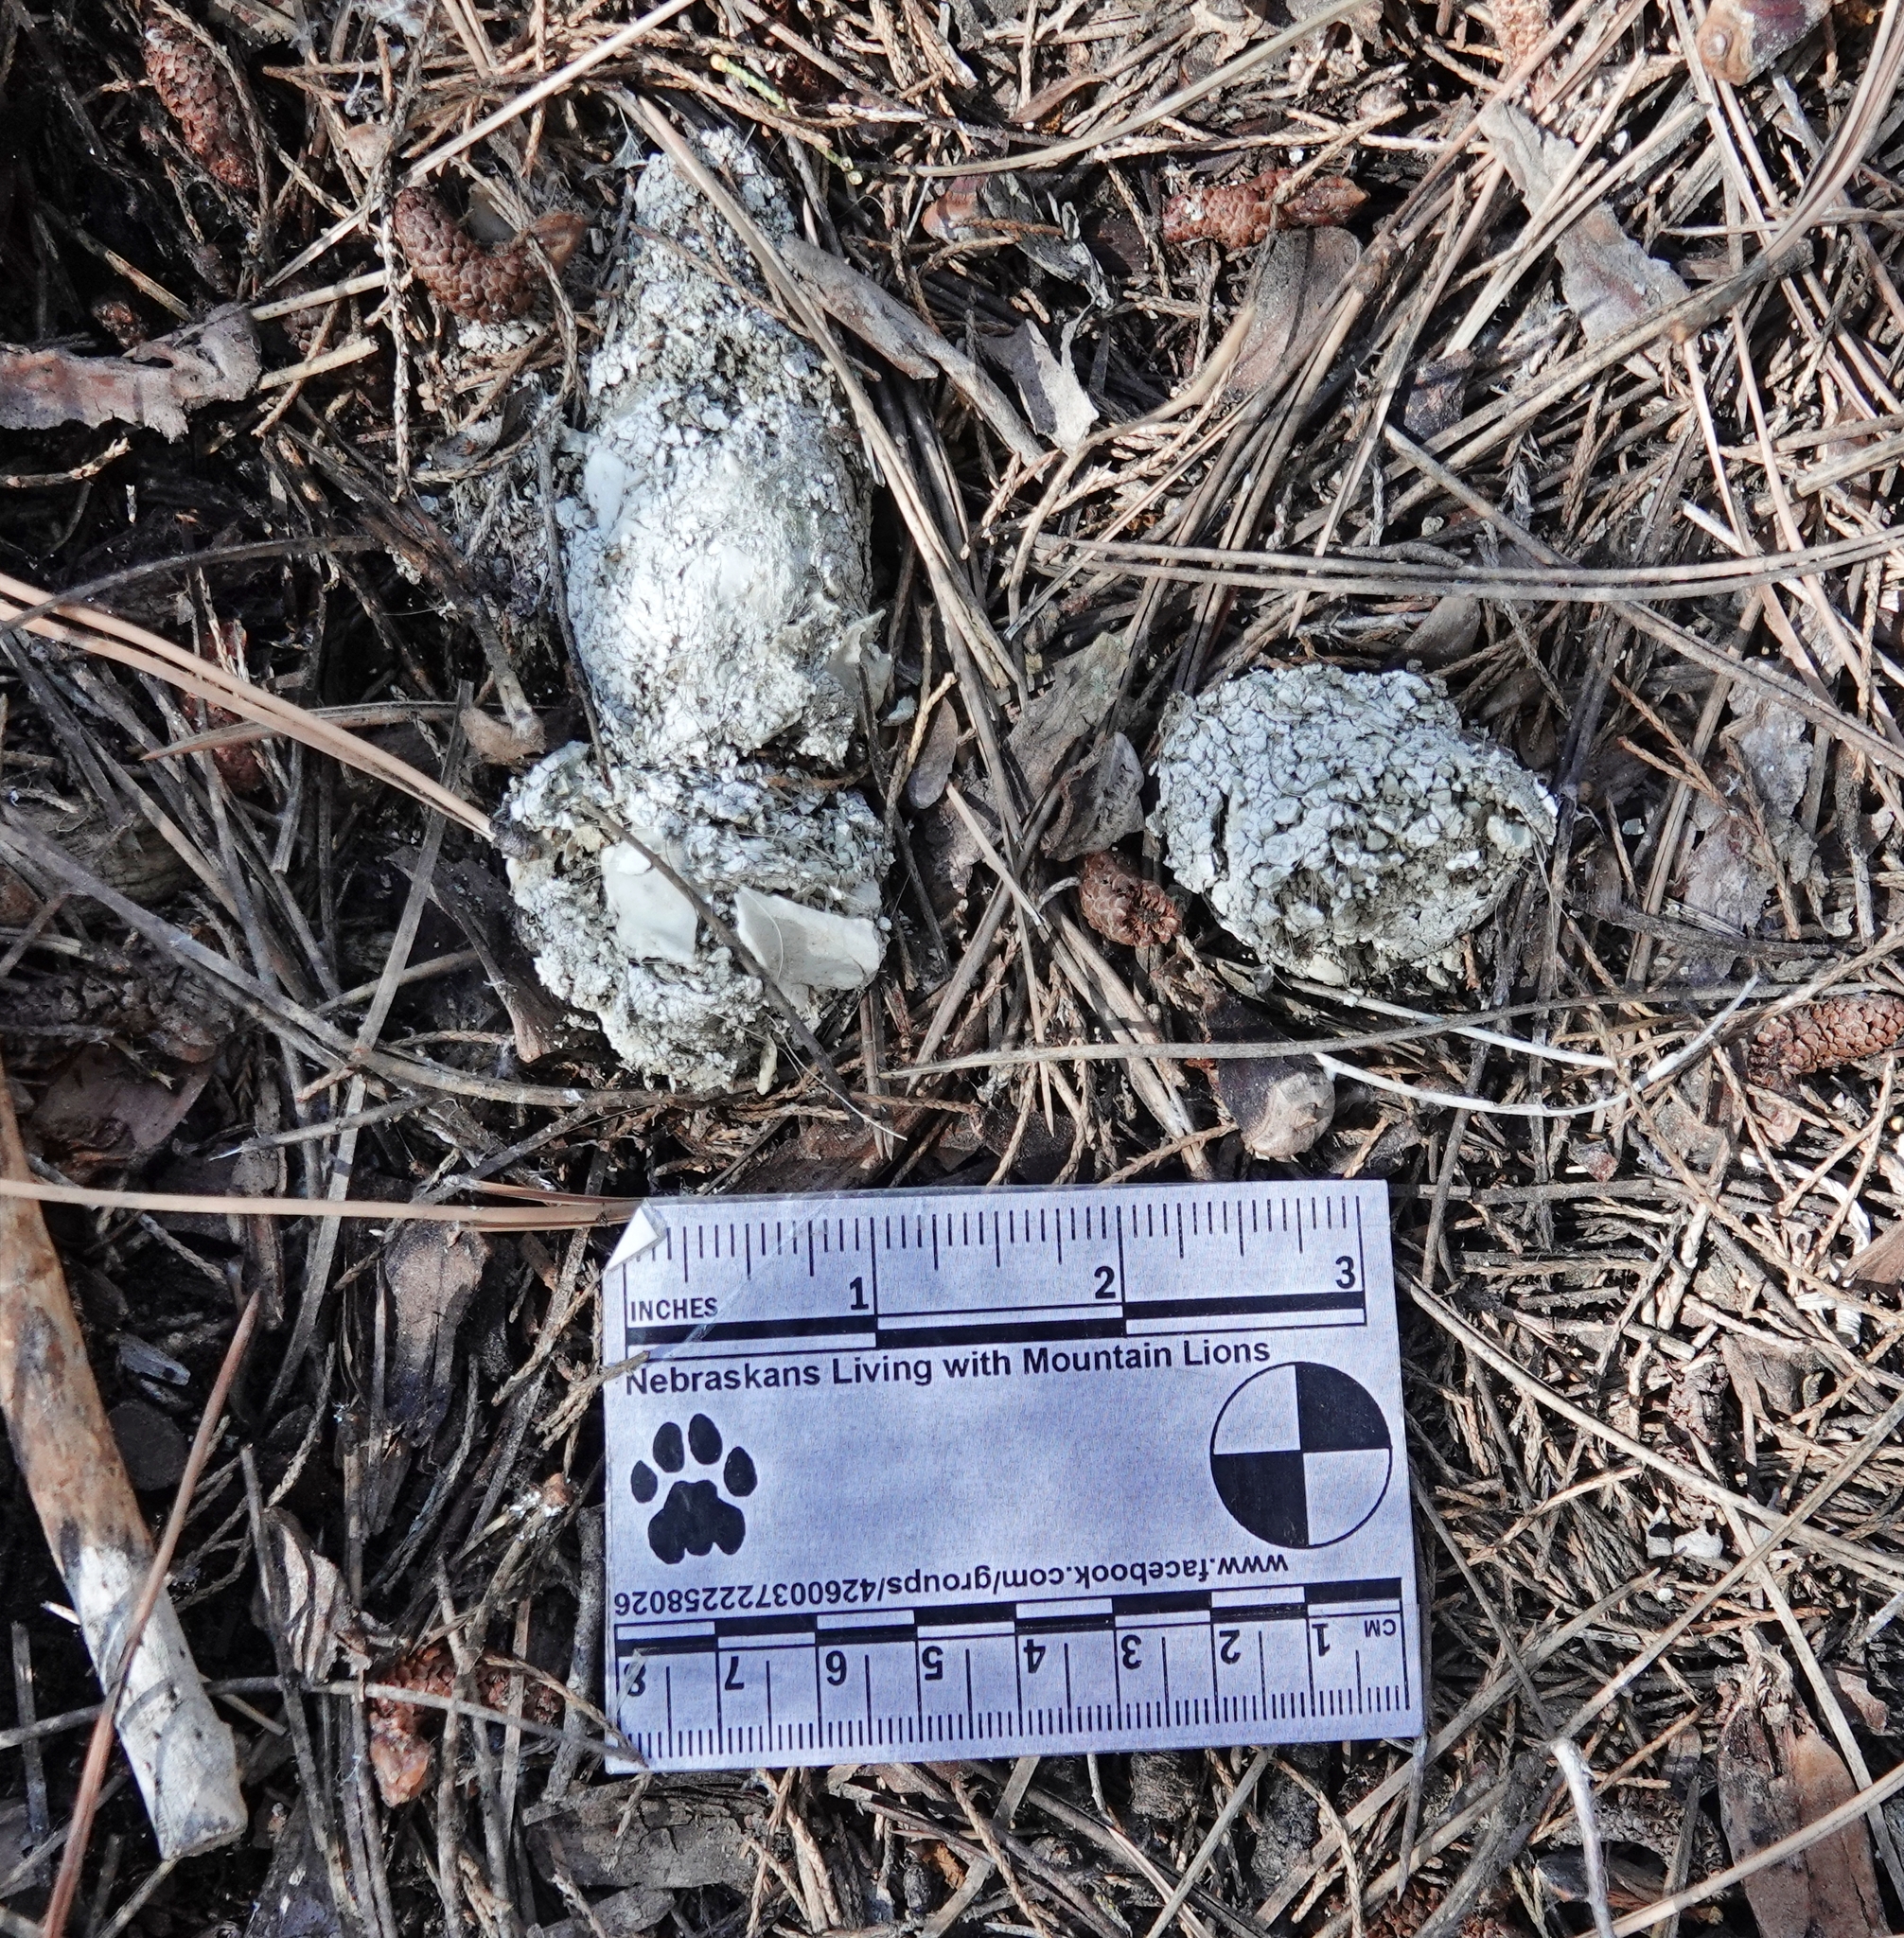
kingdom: Animalia
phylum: Chordata
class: Mammalia
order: Carnivora
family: Felidae
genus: Puma
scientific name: Puma concolor
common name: Puma
